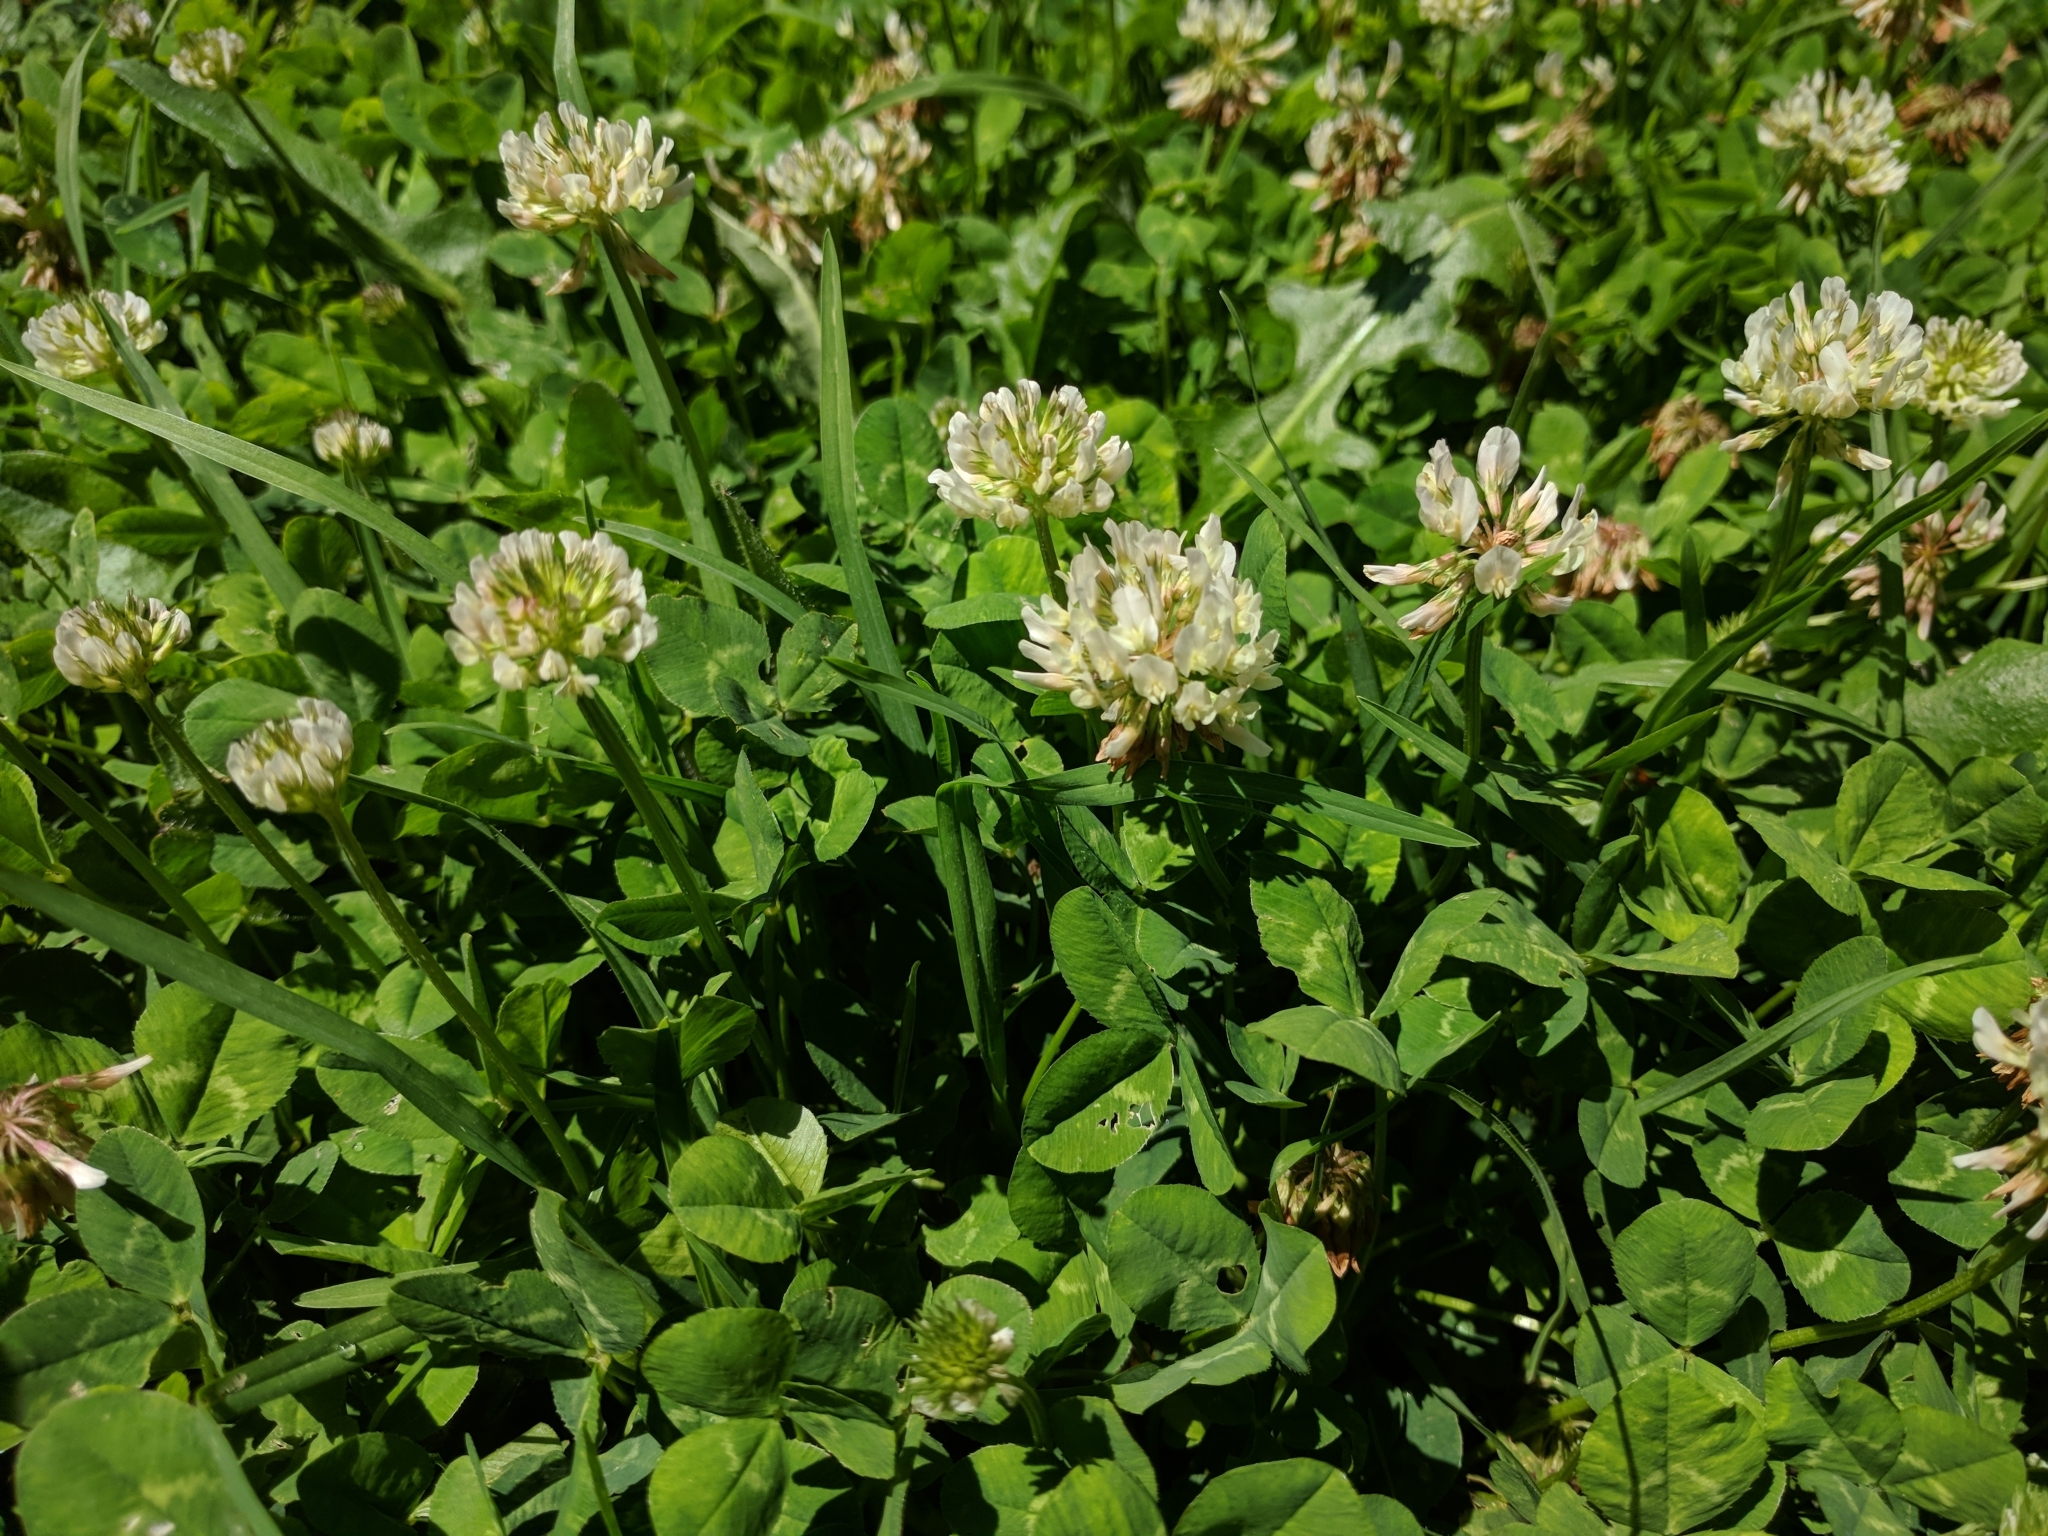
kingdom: Plantae
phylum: Tracheophyta
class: Magnoliopsida
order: Fabales
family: Fabaceae
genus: Trifolium
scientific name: Trifolium repens
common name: White clover
